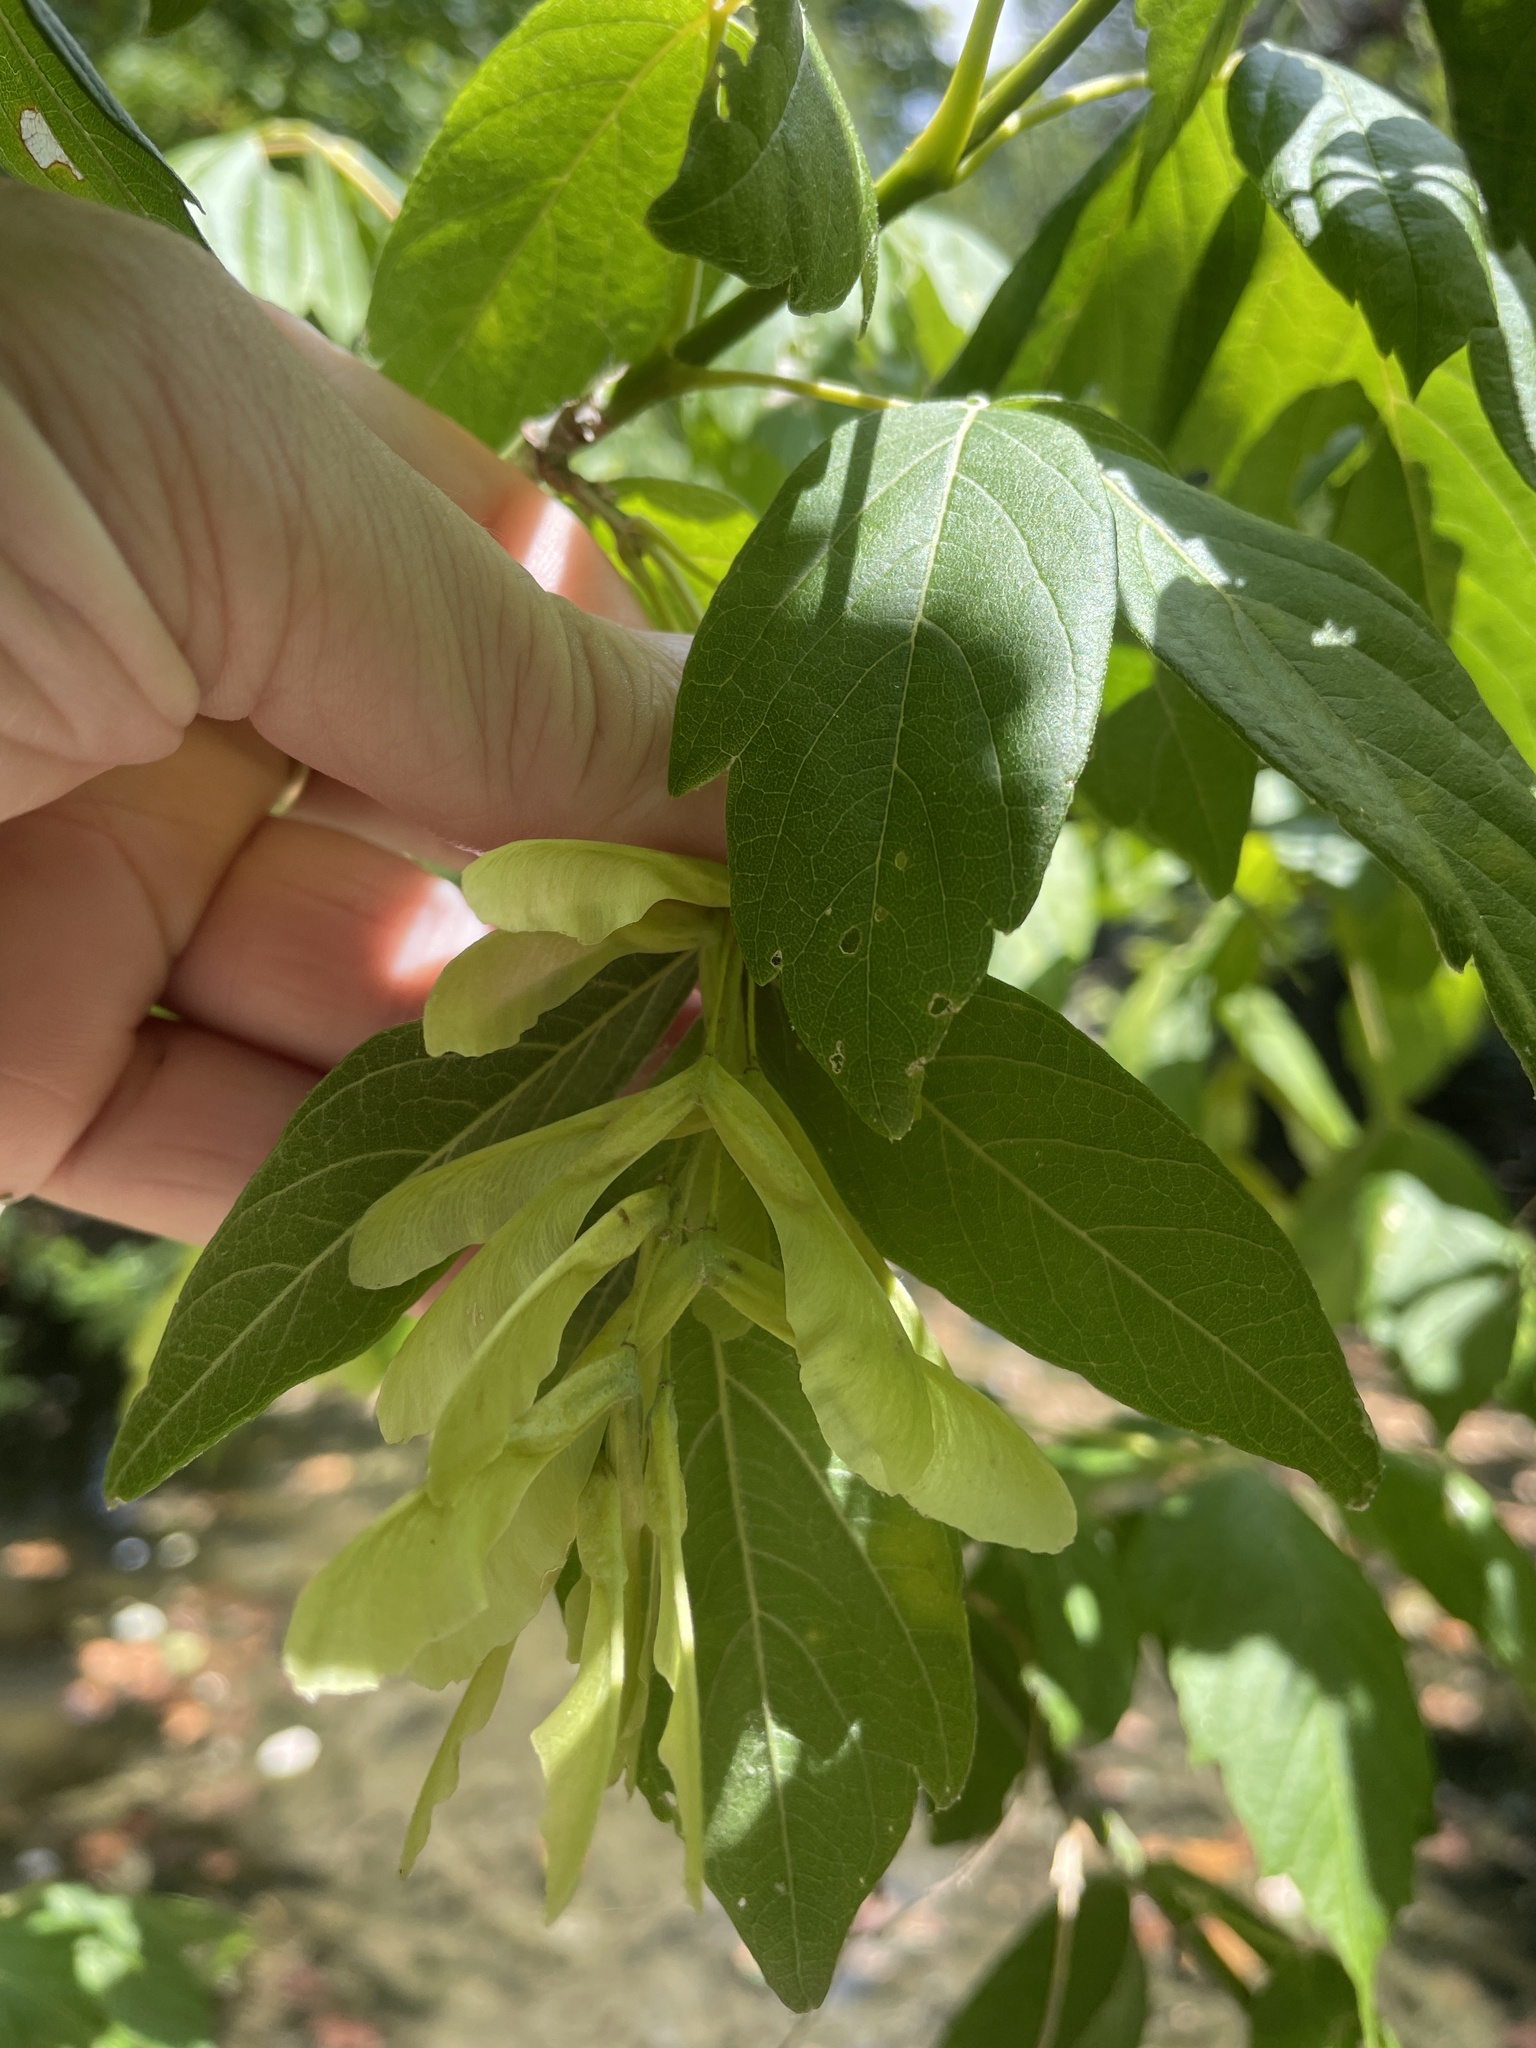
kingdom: Plantae
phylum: Tracheophyta
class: Magnoliopsida
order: Sapindales
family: Sapindaceae
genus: Acer
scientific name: Acer negundo
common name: Ashleaf maple
